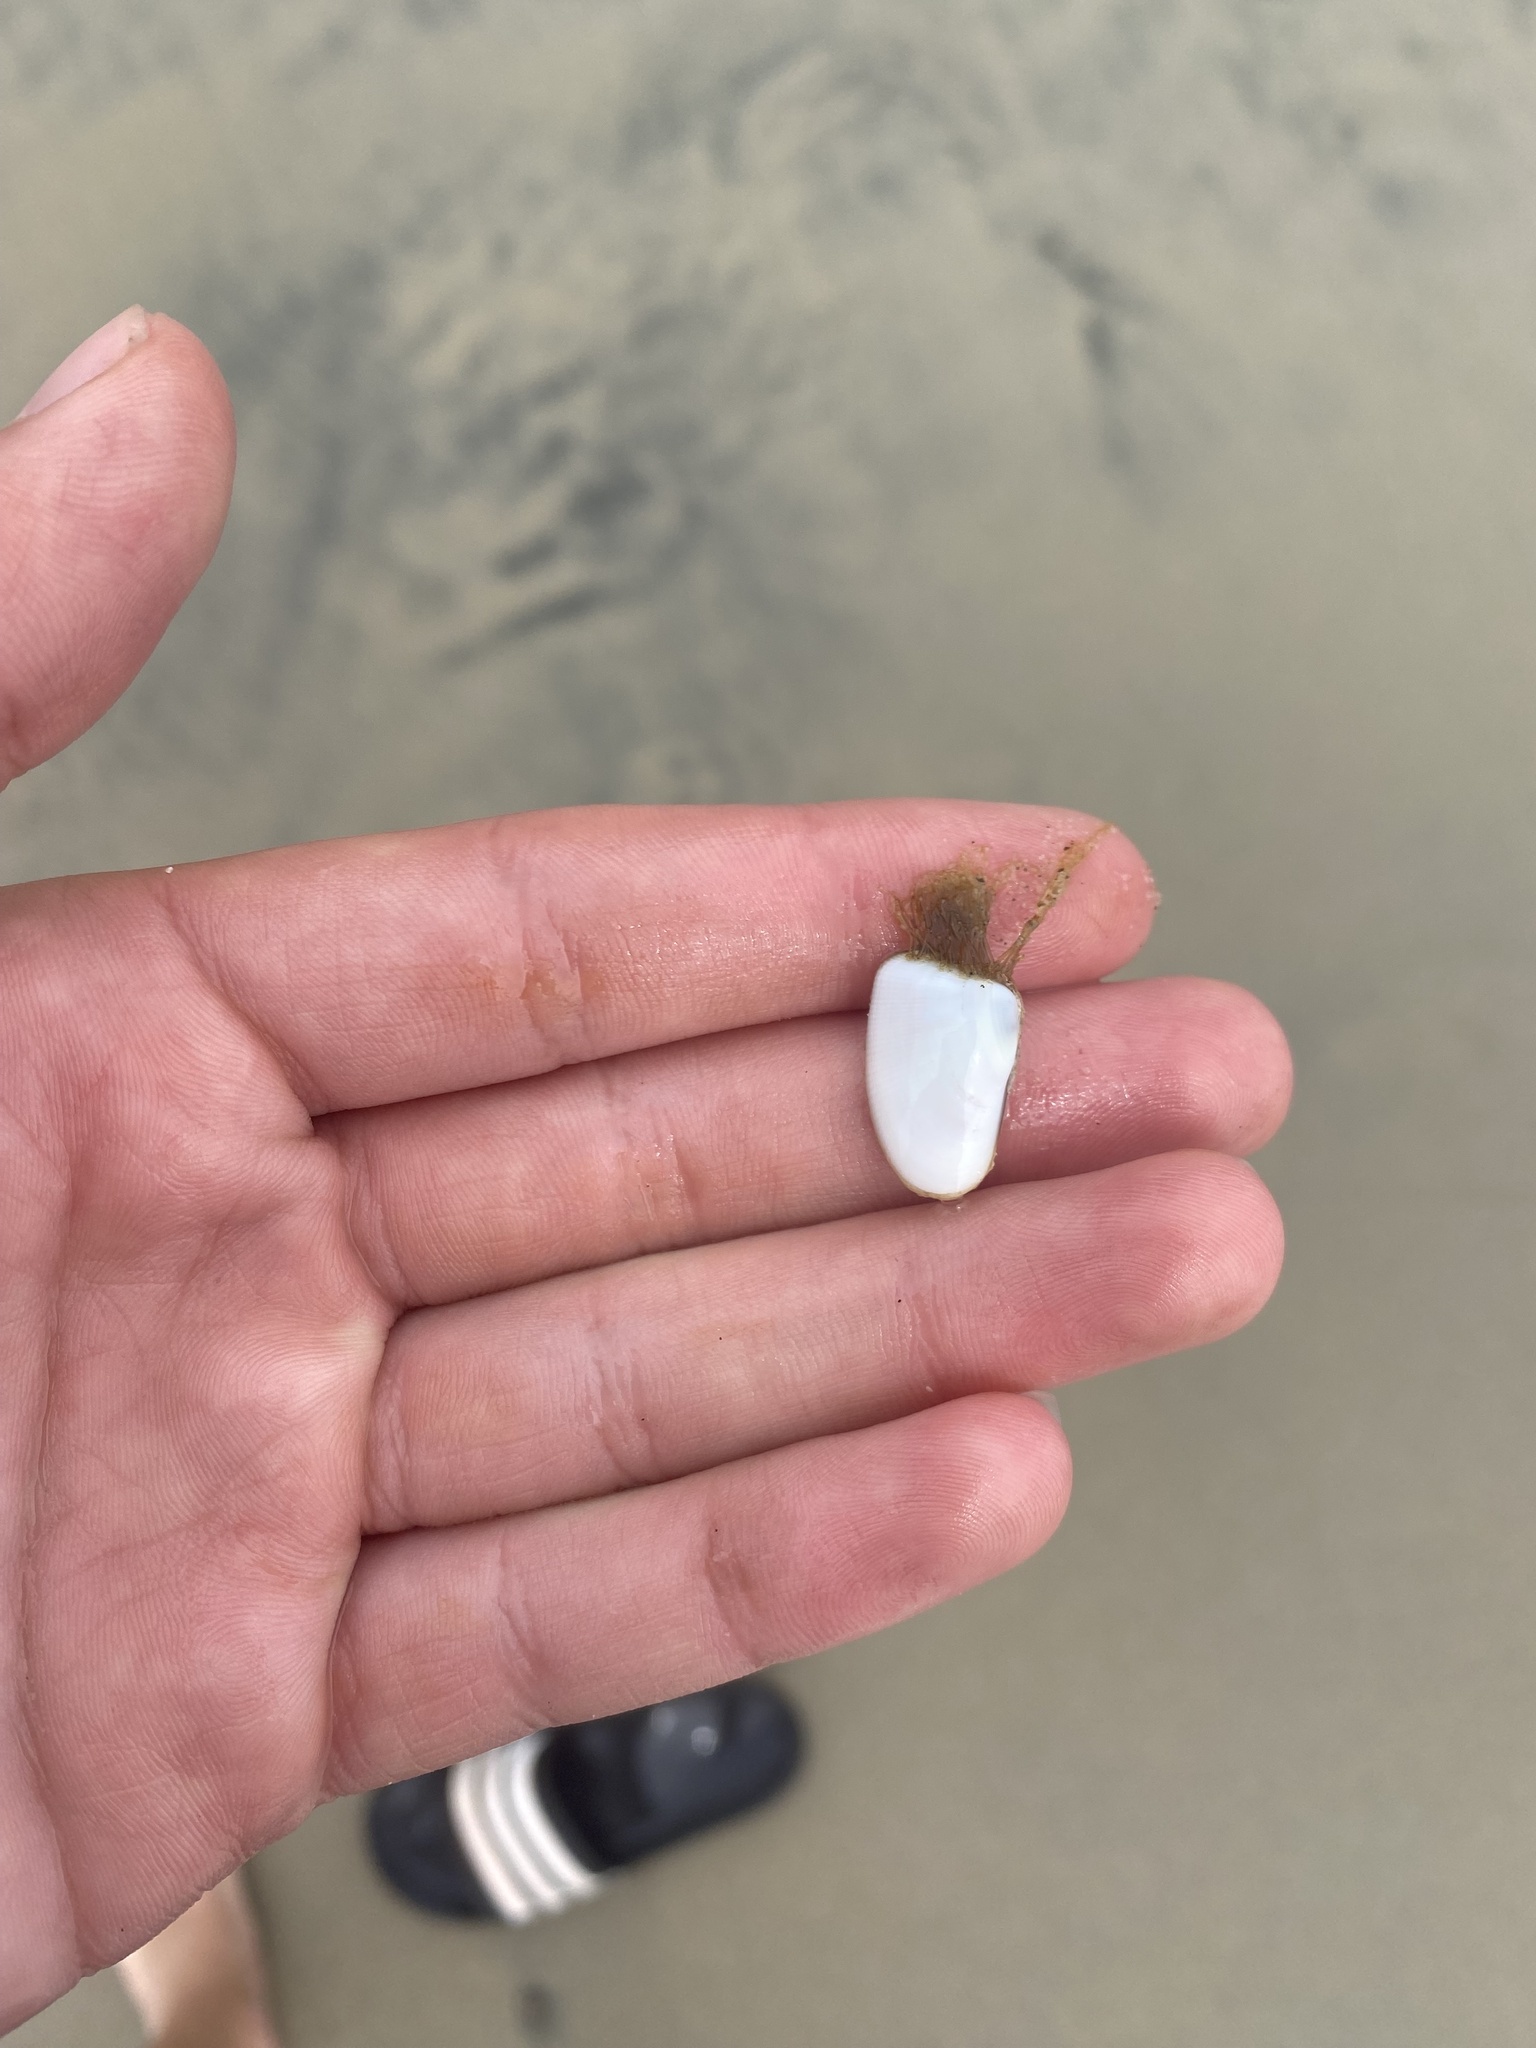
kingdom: Animalia
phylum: Cnidaria
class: Hydrozoa
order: Leptothecata
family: Lovenellidae
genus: Eucheilota
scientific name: Eucheilota bakeri
